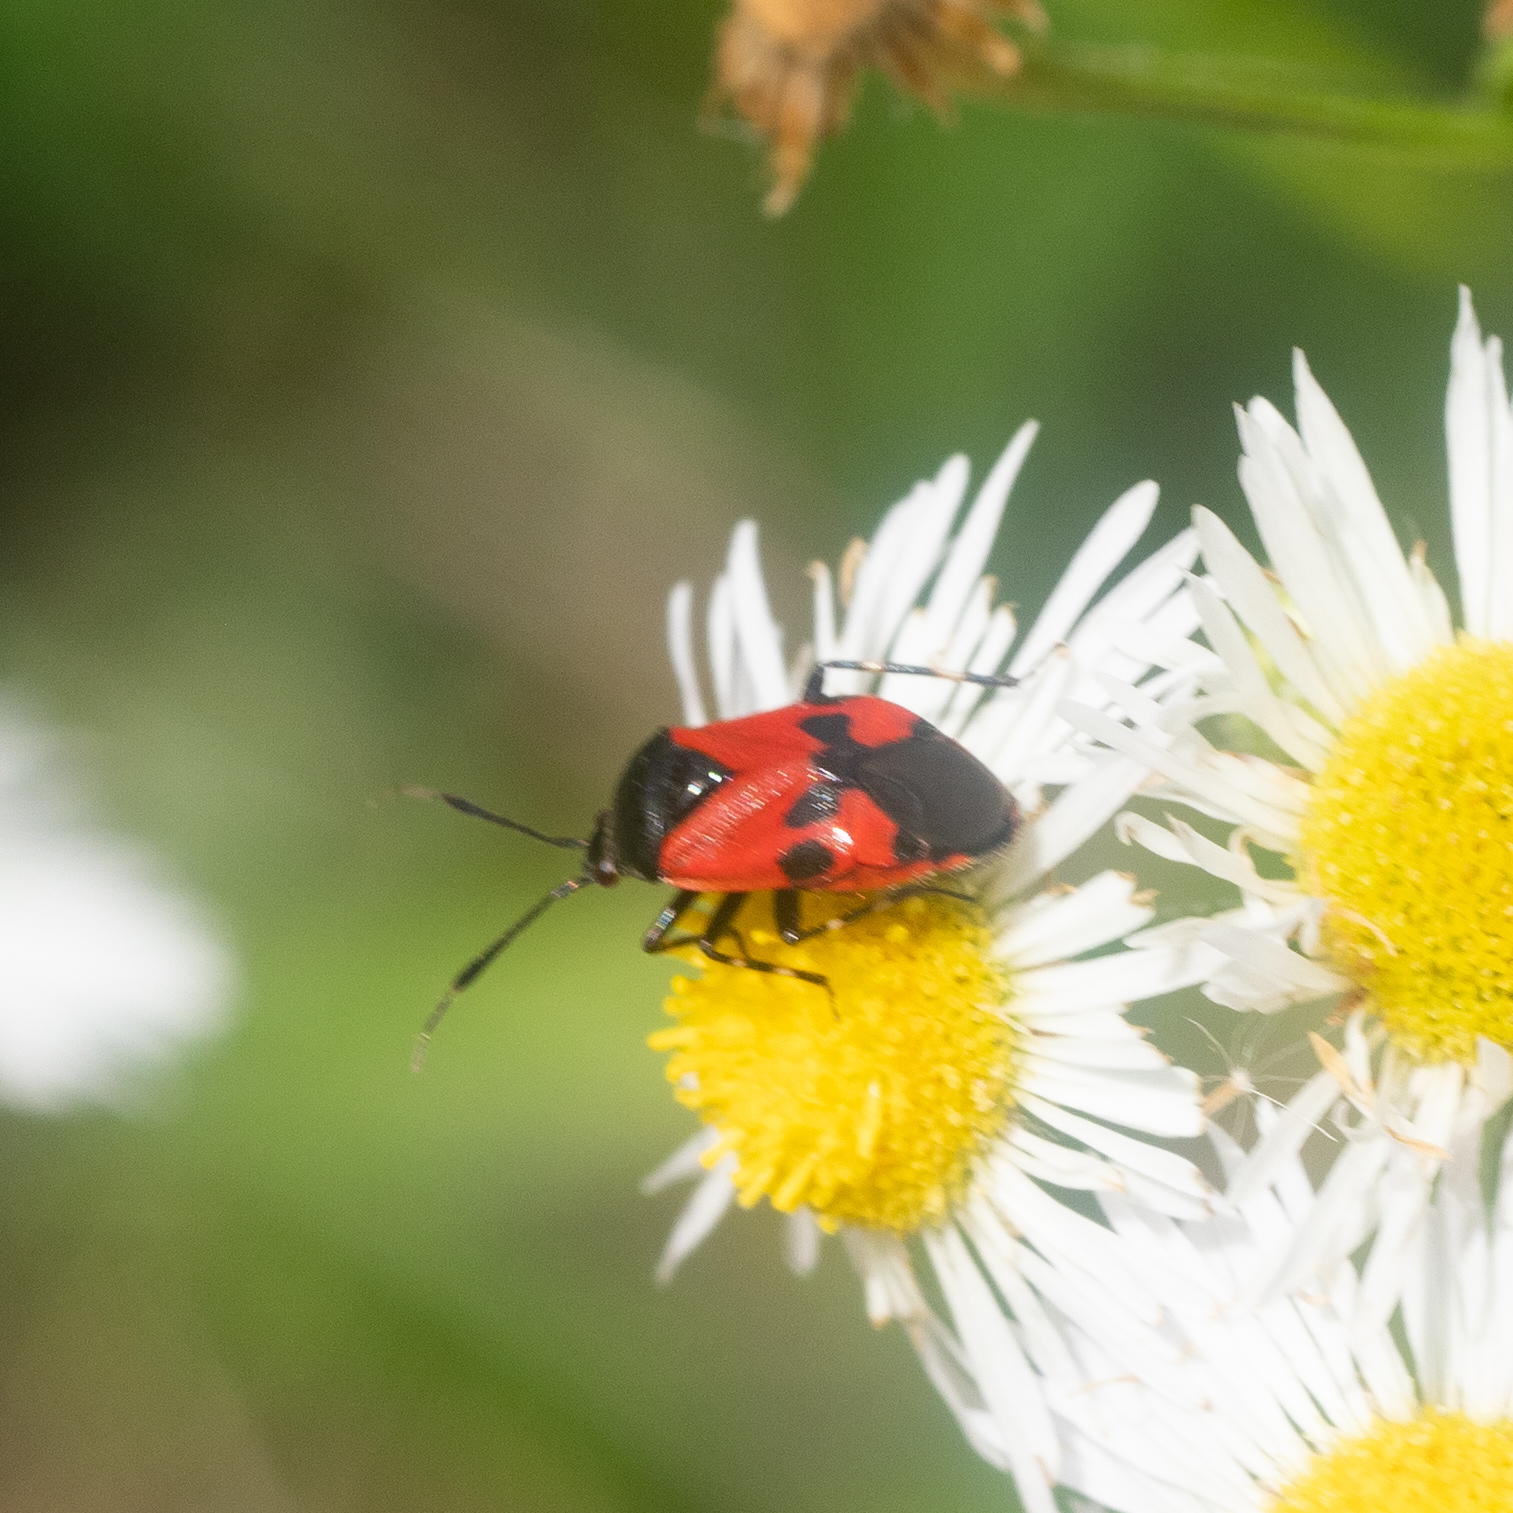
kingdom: Animalia
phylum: Arthropoda
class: Insecta
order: Hemiptera
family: Miridae
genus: Deraeocoris
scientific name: Deraeocoris rutilus
